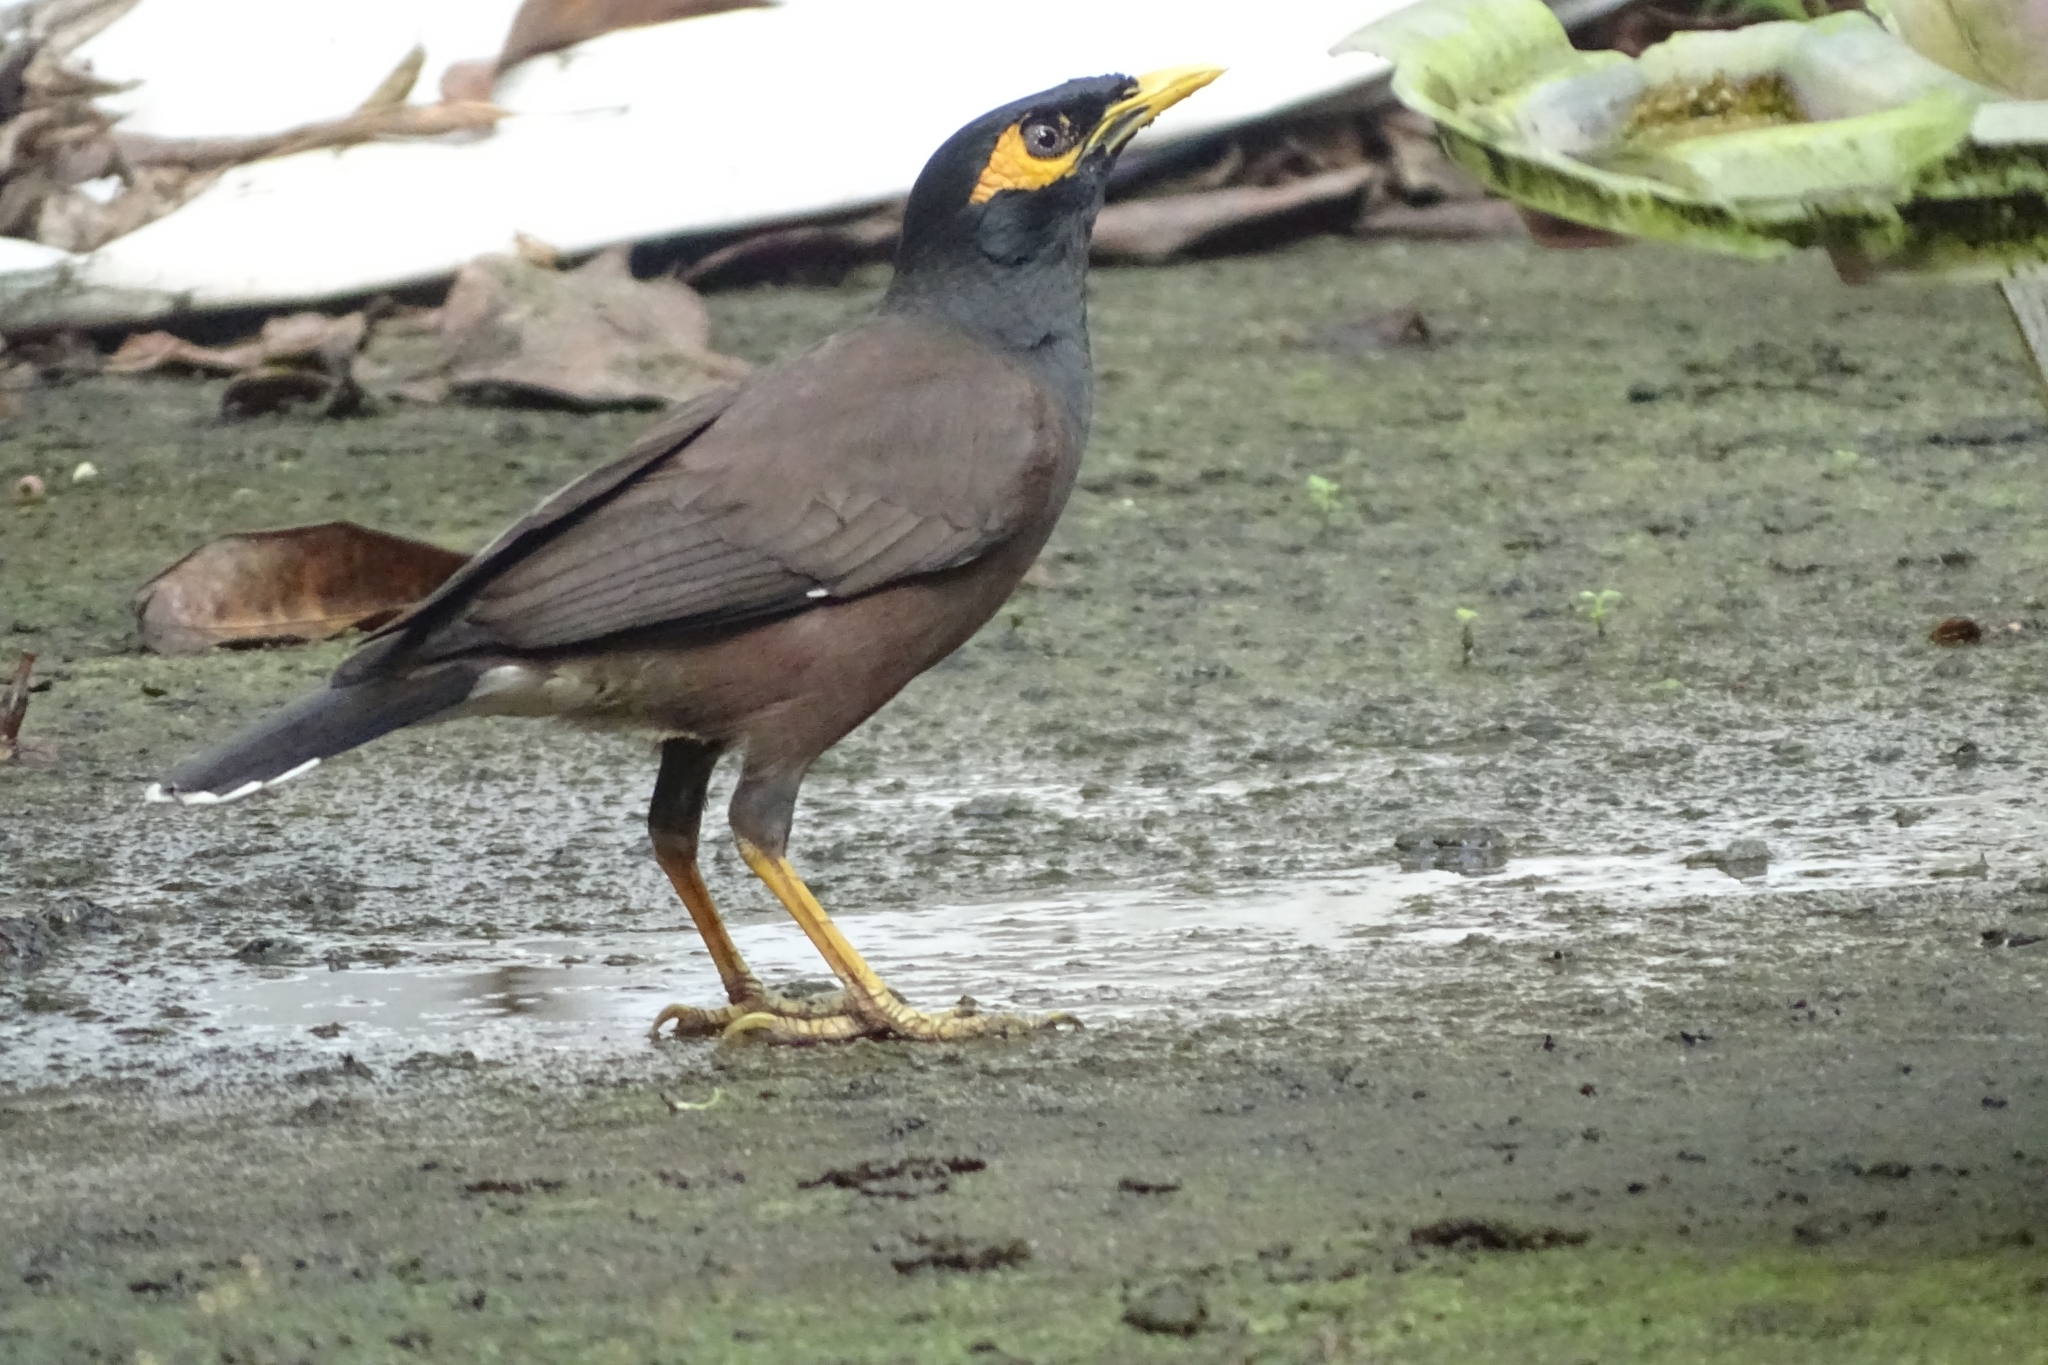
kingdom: Animalia
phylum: Chordata
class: Aves
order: Passeriformes
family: Sturnidae
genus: Acridotheres
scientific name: Acridotheres tristis
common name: Common myna
